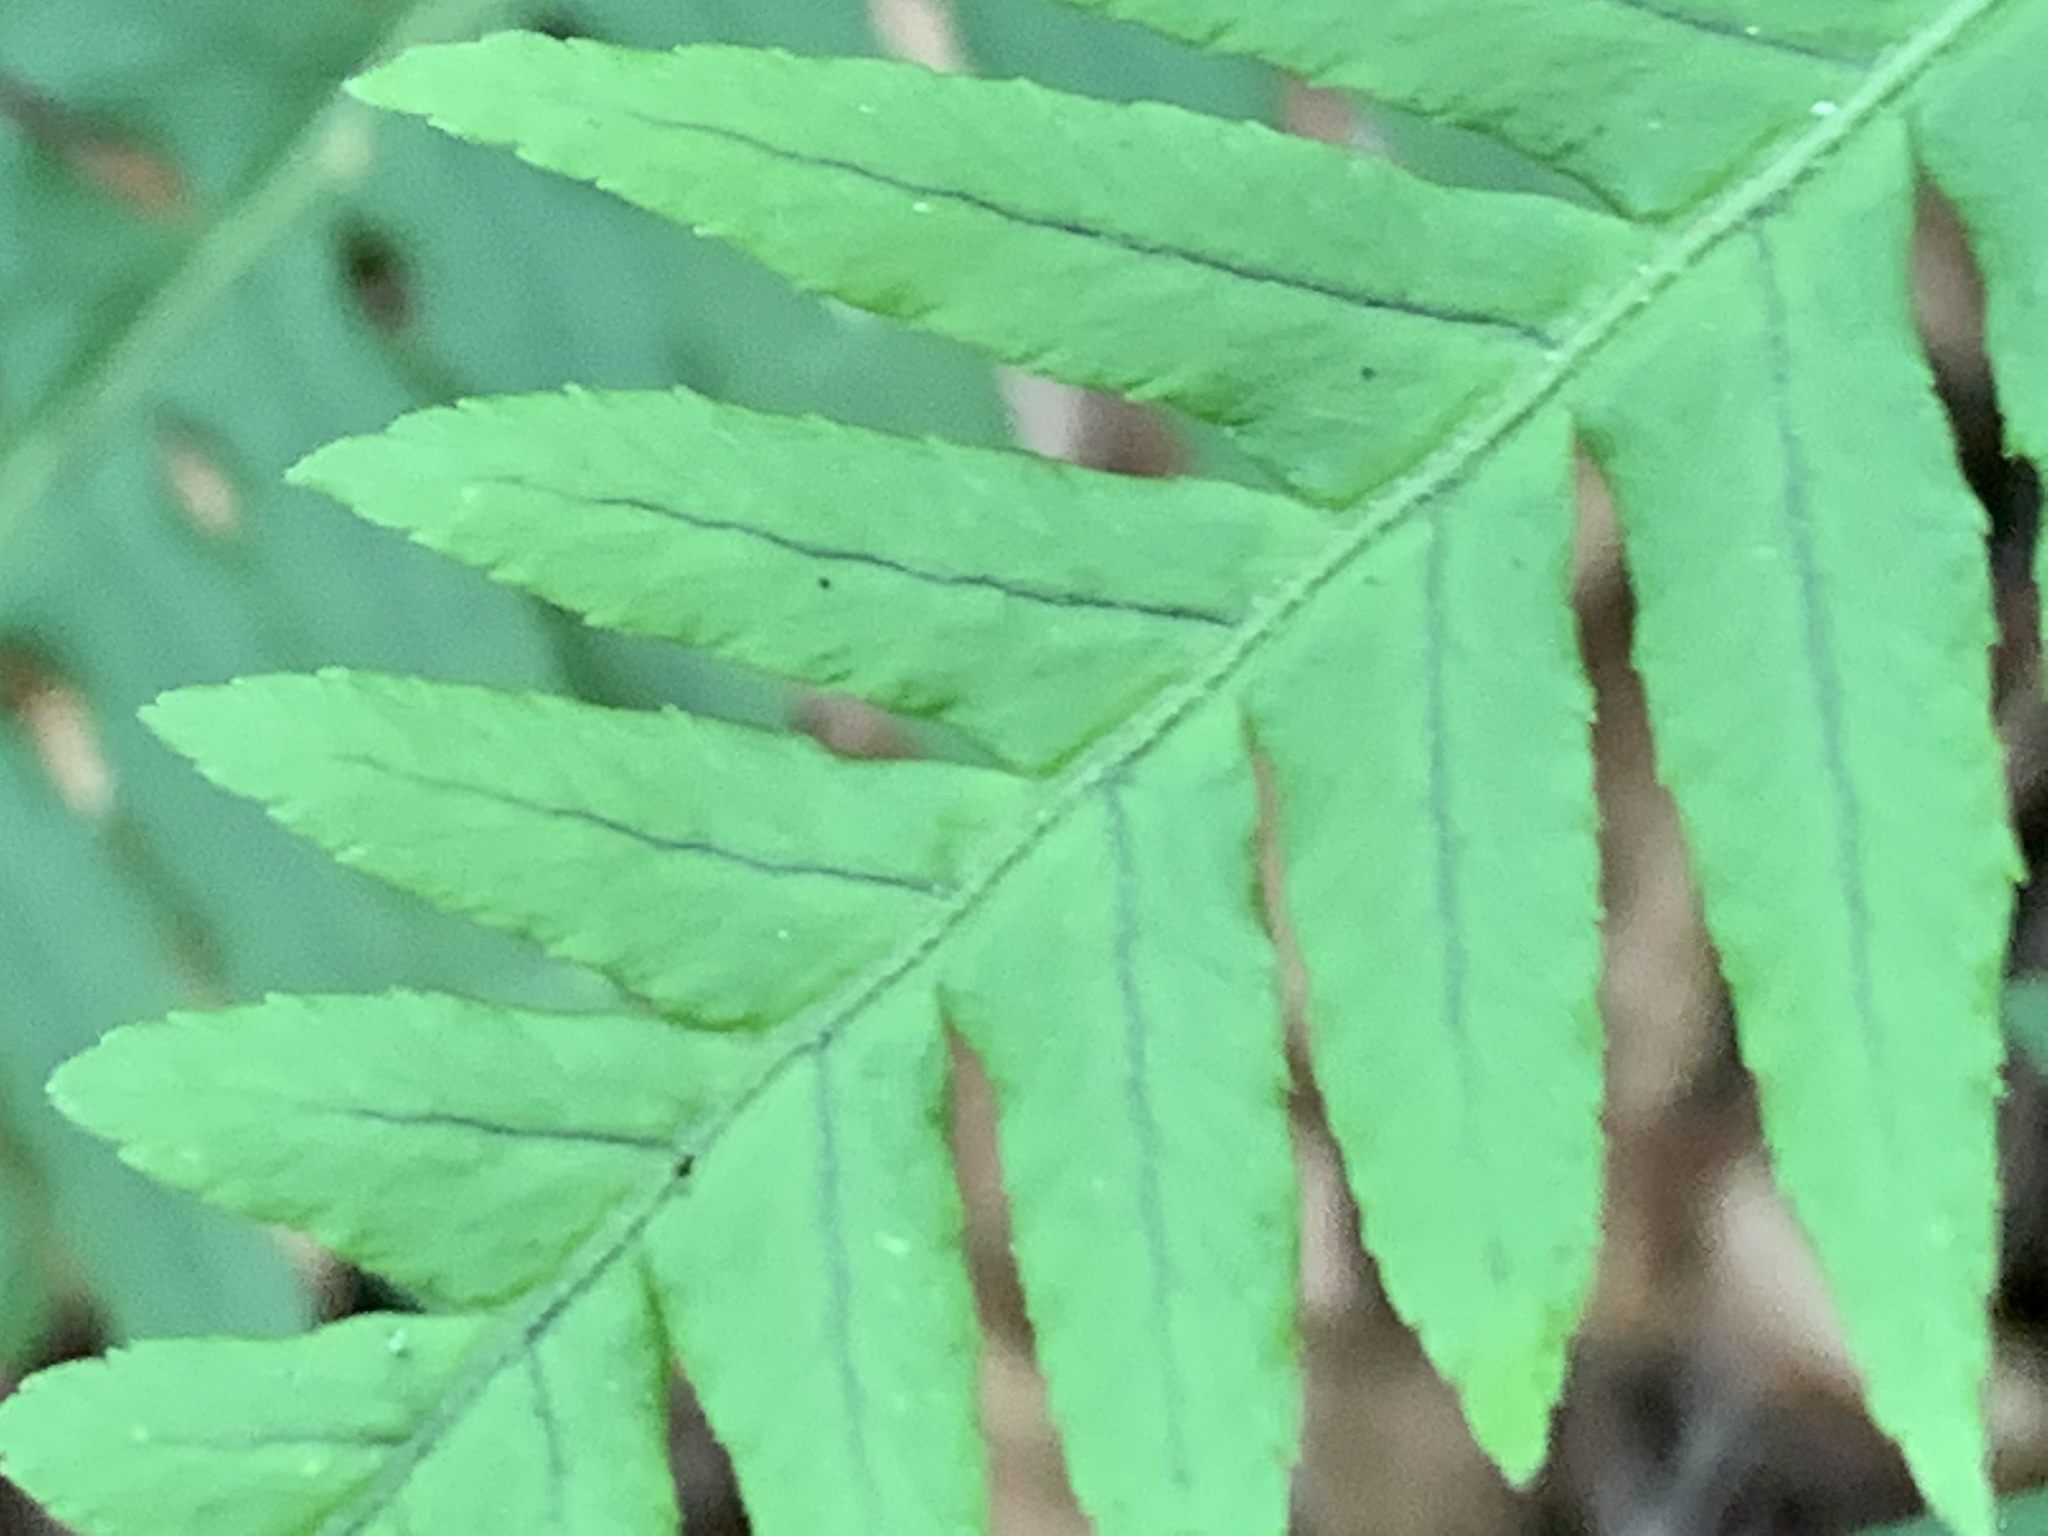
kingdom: Plantae
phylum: Tracheophyta
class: Polypodiopsida
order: Polypodiales
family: Polypodiaceae
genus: Polypodium
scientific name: Polypodium glycyrrhiza
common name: Licorice fern
